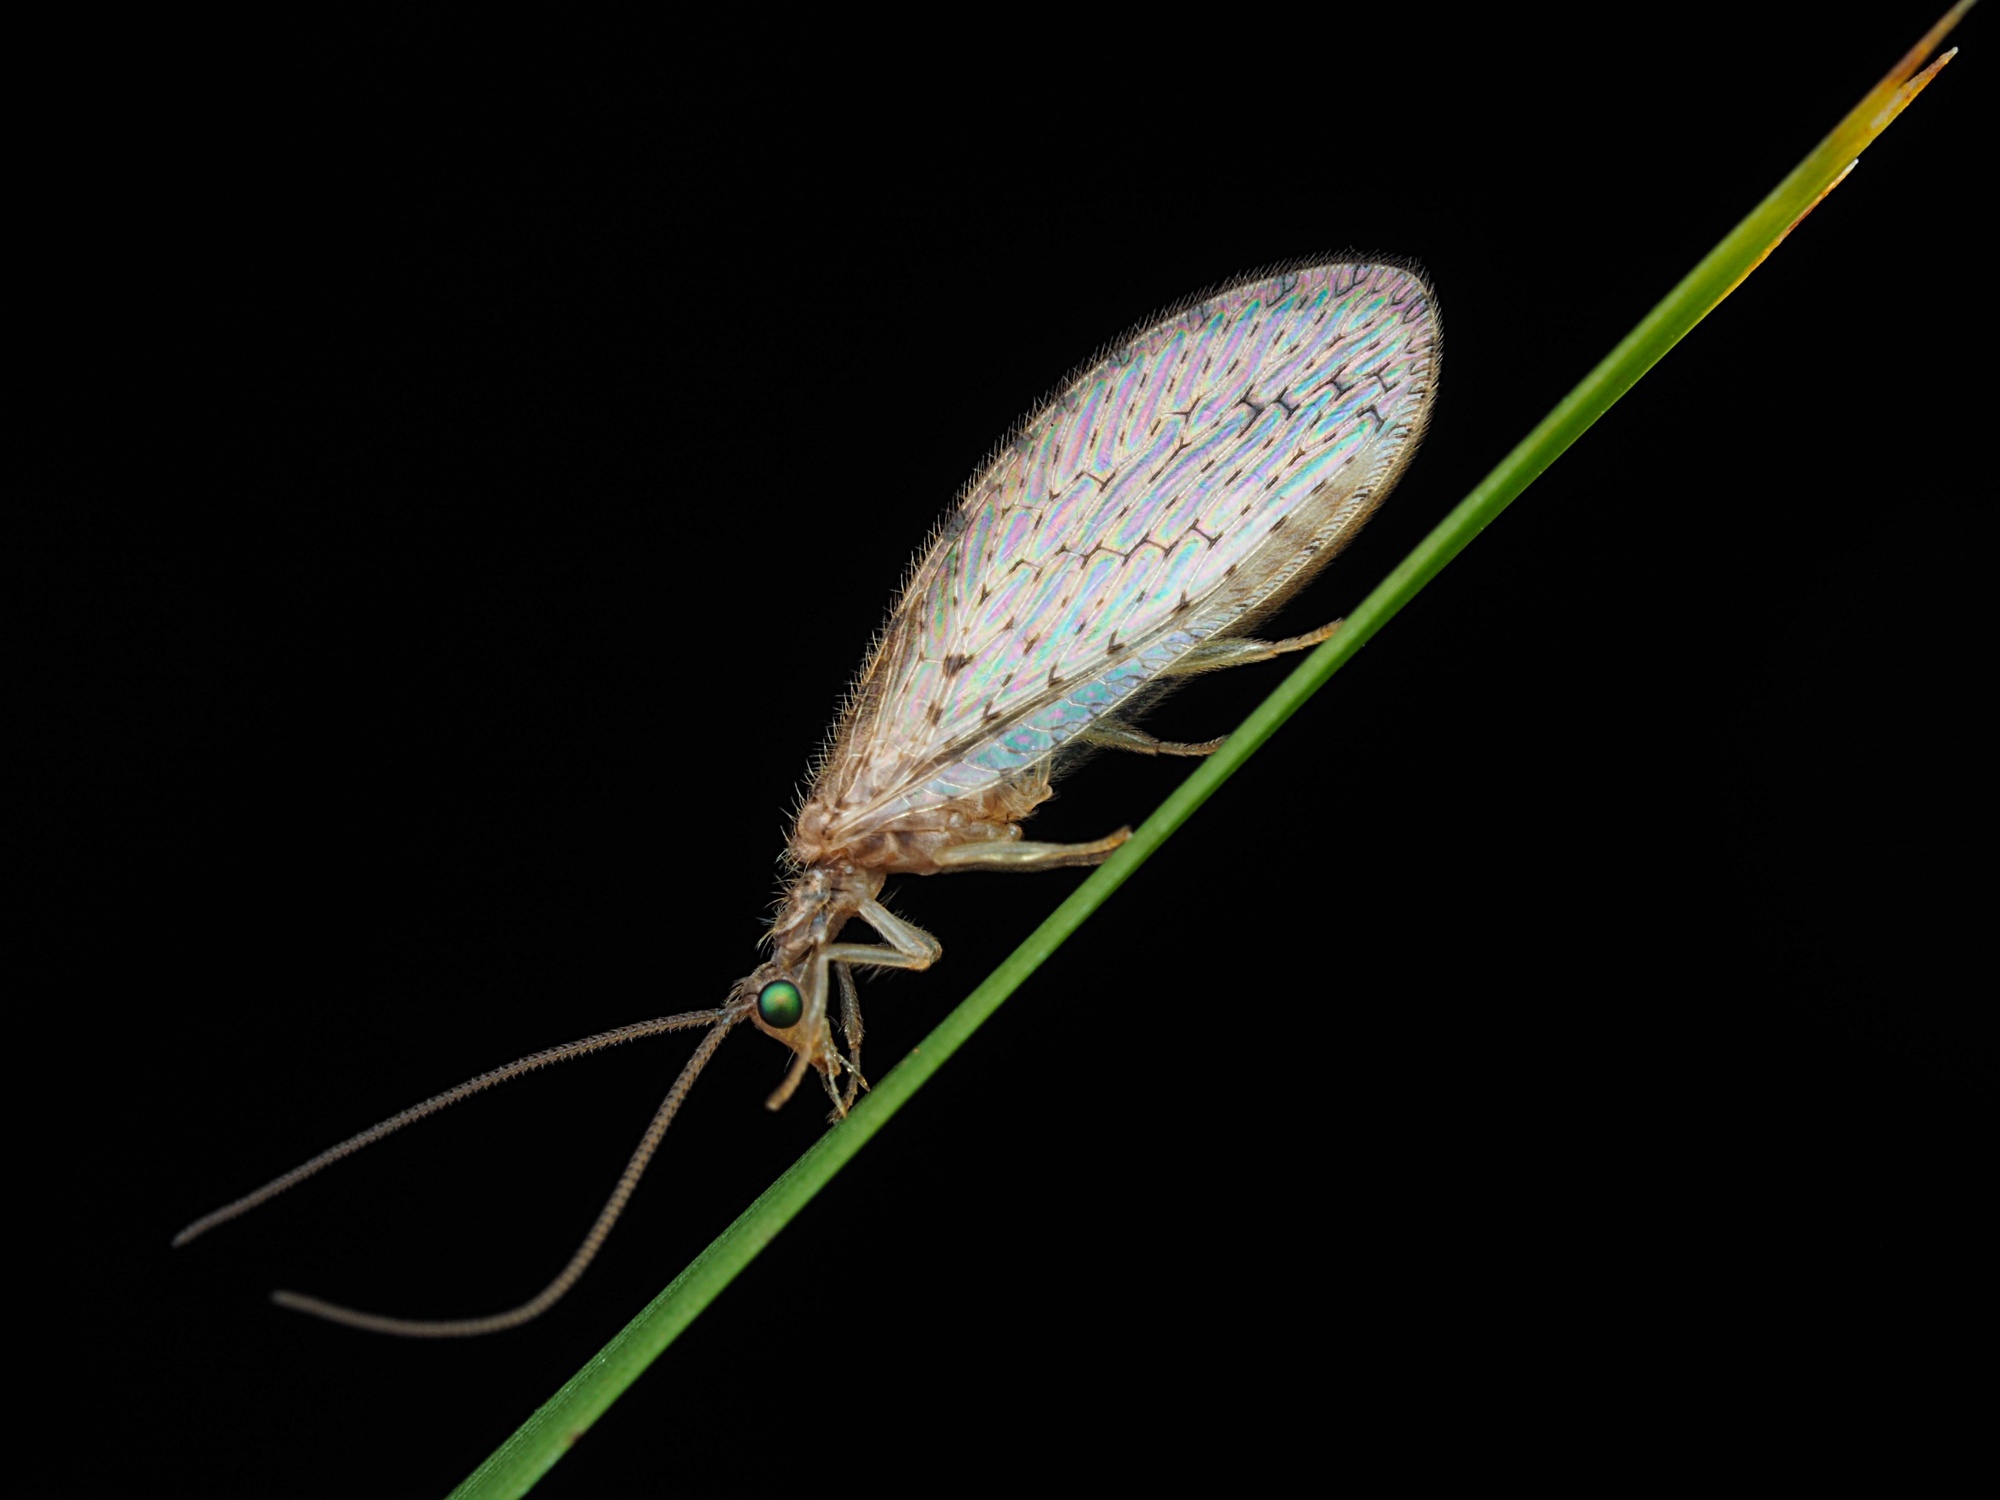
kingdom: Animalia
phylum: Arthropoda
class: Insecta
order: Neuroptera
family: Hemerobiidae
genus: Micromus
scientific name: Micromus tasmaniae
